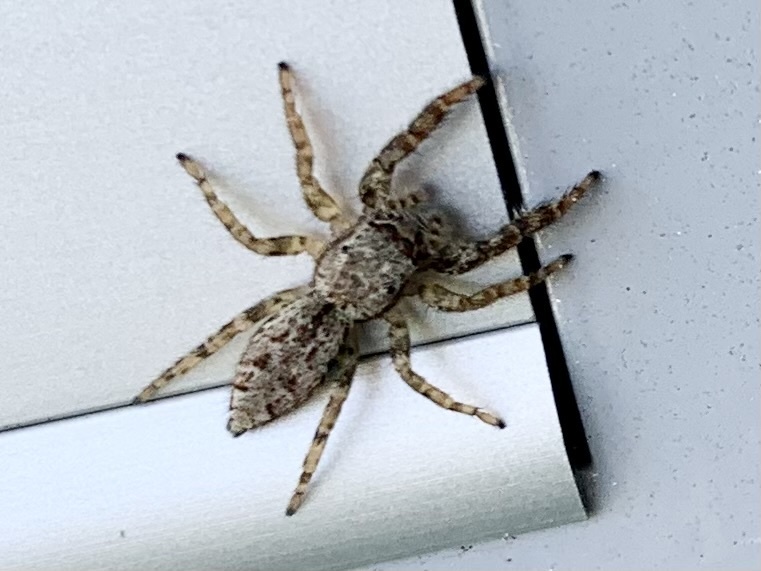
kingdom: Animalia
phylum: Arthropoda
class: Arachnida
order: Araneae
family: Salticidae
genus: Marpissa
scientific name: Marpissa muscosa
